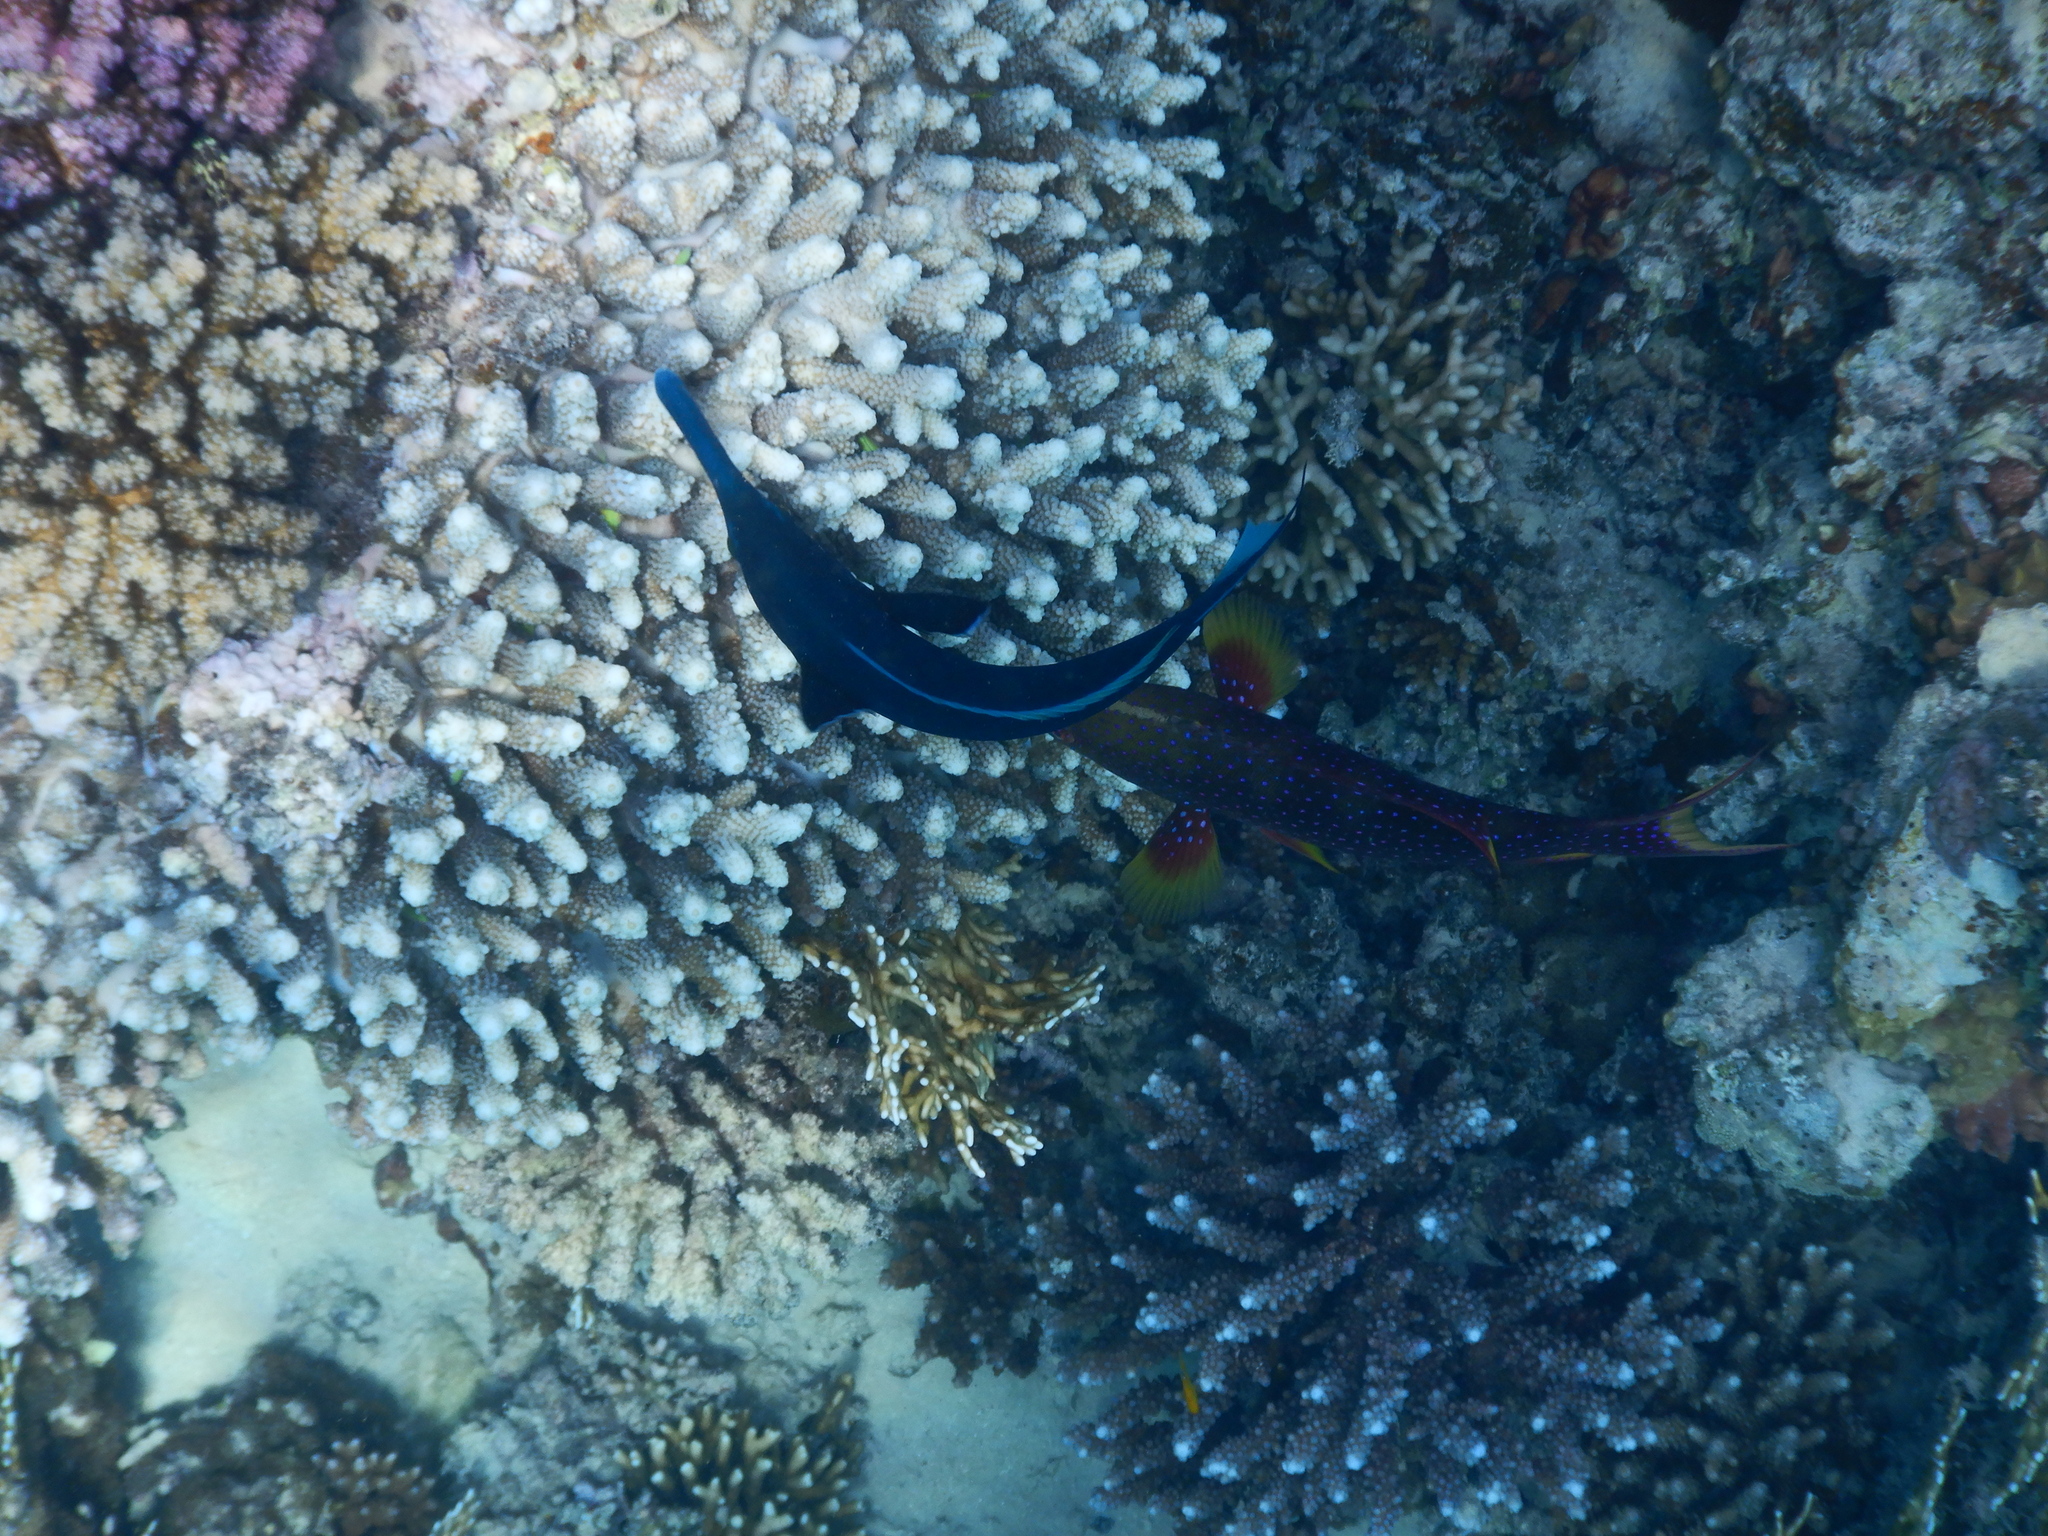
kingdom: Animalia
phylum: Chordata
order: Perciformes
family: Labridae
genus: Gomphosus
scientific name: Gomphosus klunzingeri
